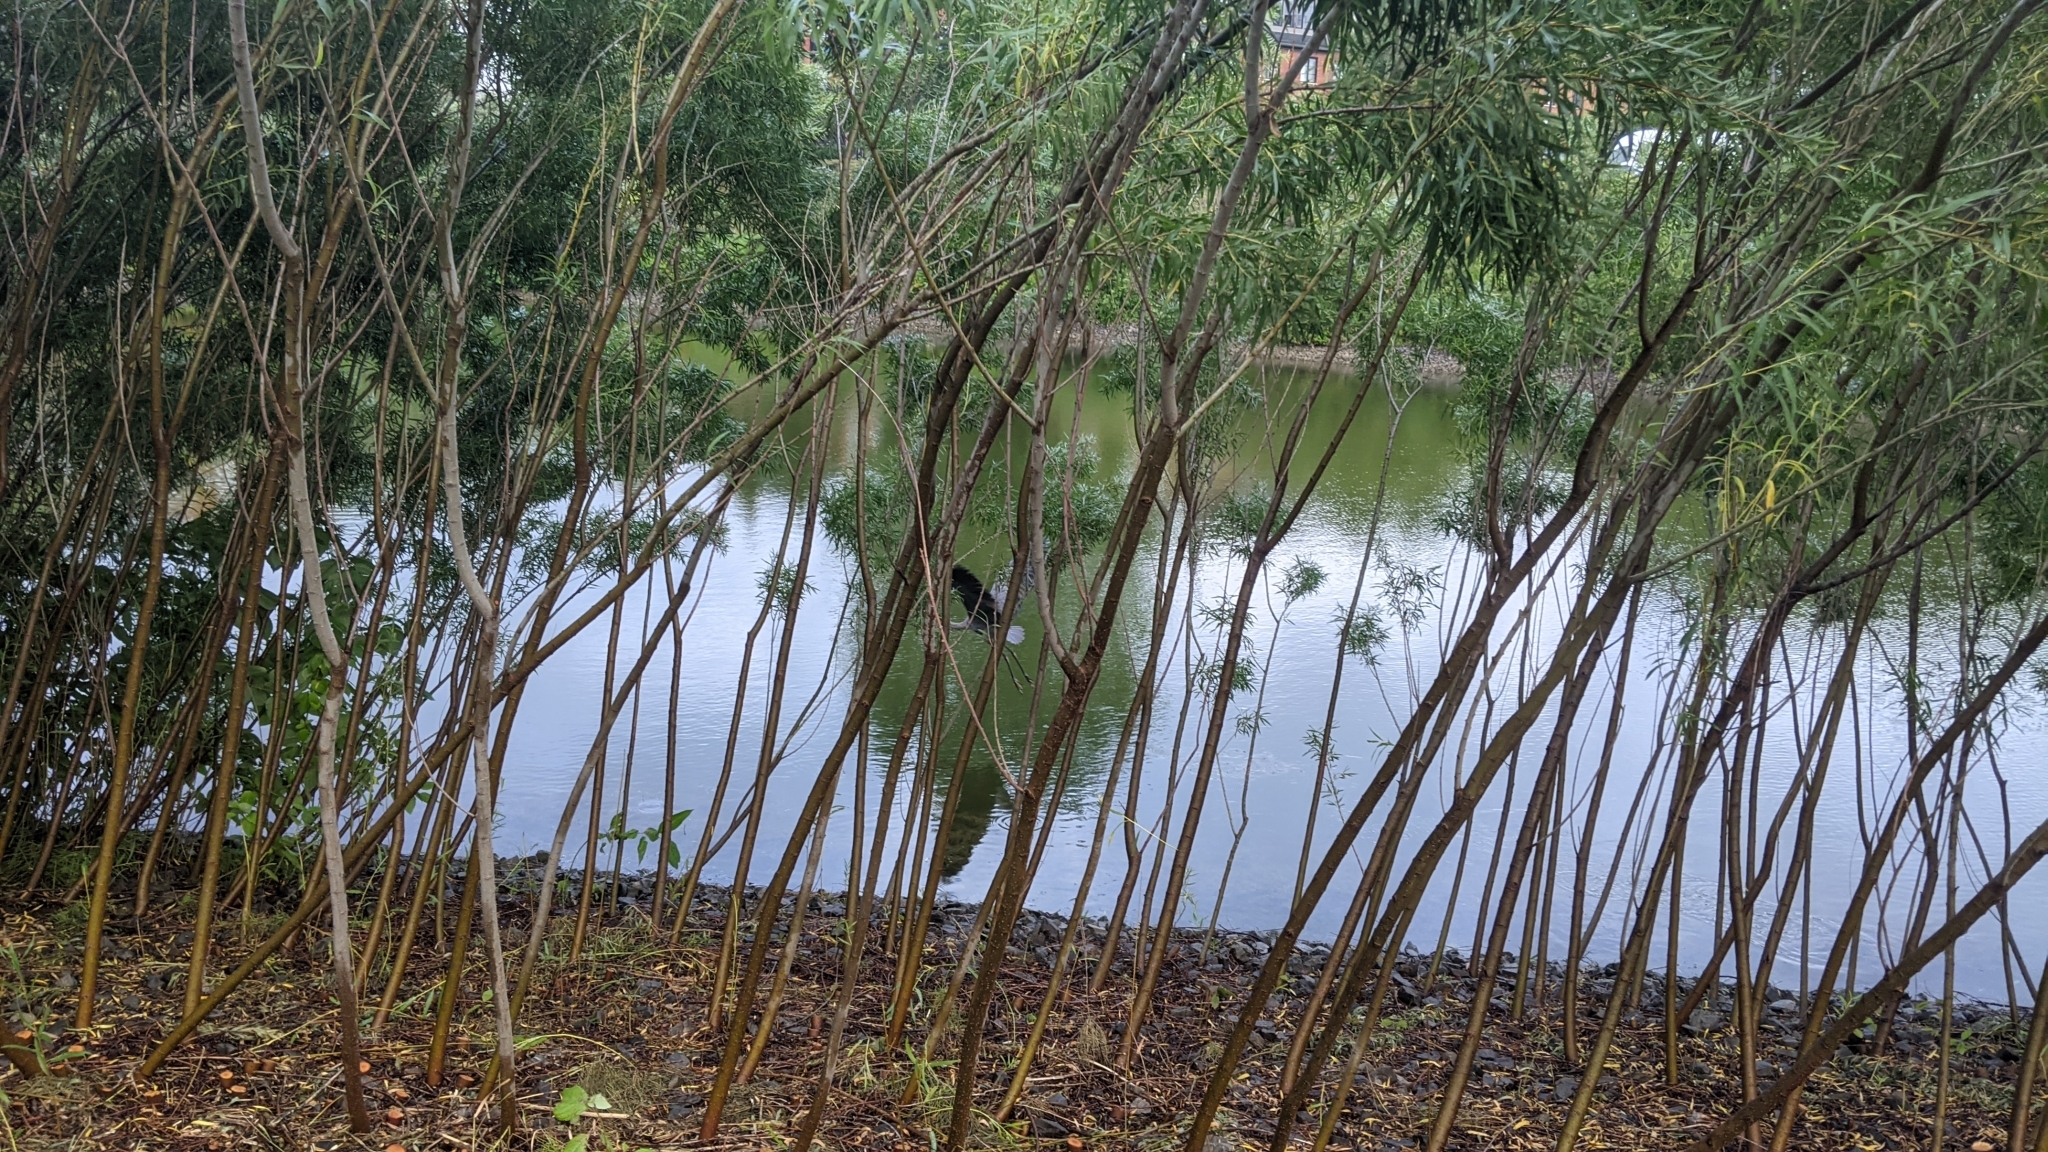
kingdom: Animalia
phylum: Chordata
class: Aves
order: Pelecaniformes
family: Ardeidae
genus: Ardea
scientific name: Ardea herodias
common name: Great blue heron
